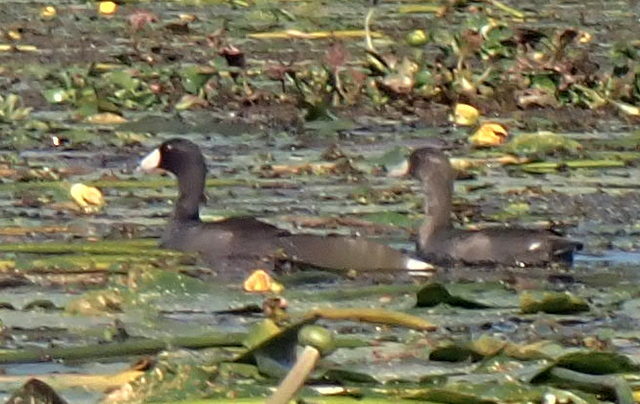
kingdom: Animalia
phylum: Chordata
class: Aves
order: Gruiformes
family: Rallidae
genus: Fulica
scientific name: Fulica americana
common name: American coot
